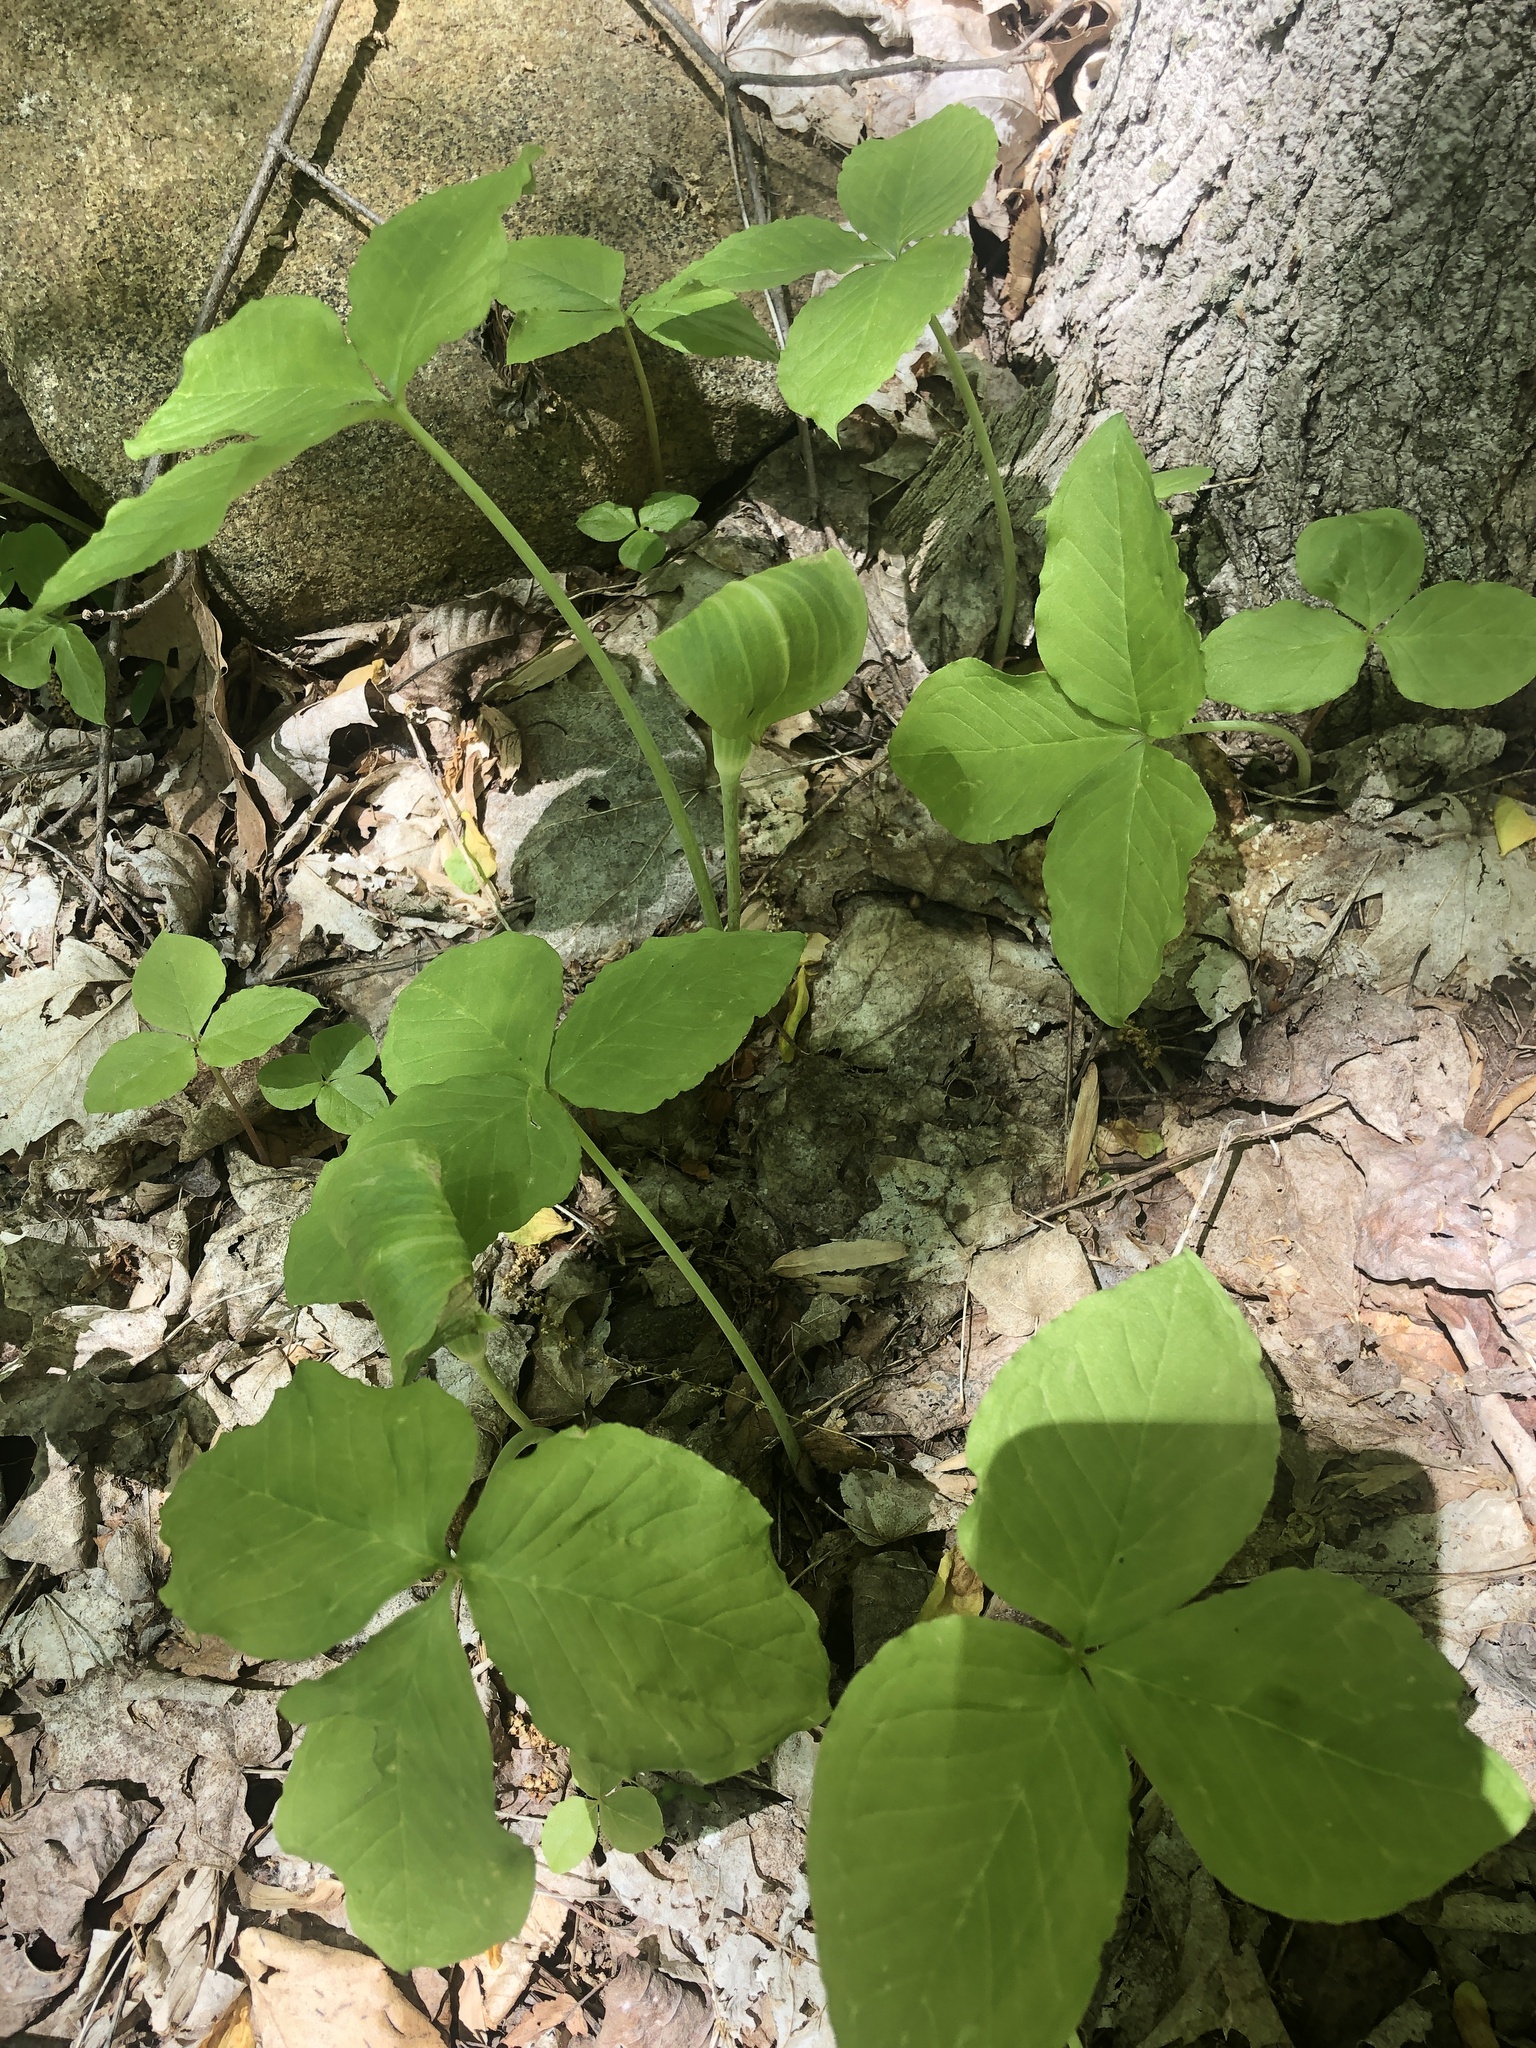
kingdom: Plantae
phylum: Tracheophyta
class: Liliopsida
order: Alismatales
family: Araceae
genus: Arisaema
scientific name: Arisaema triphyllum
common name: Jack-in-the-pulpit
